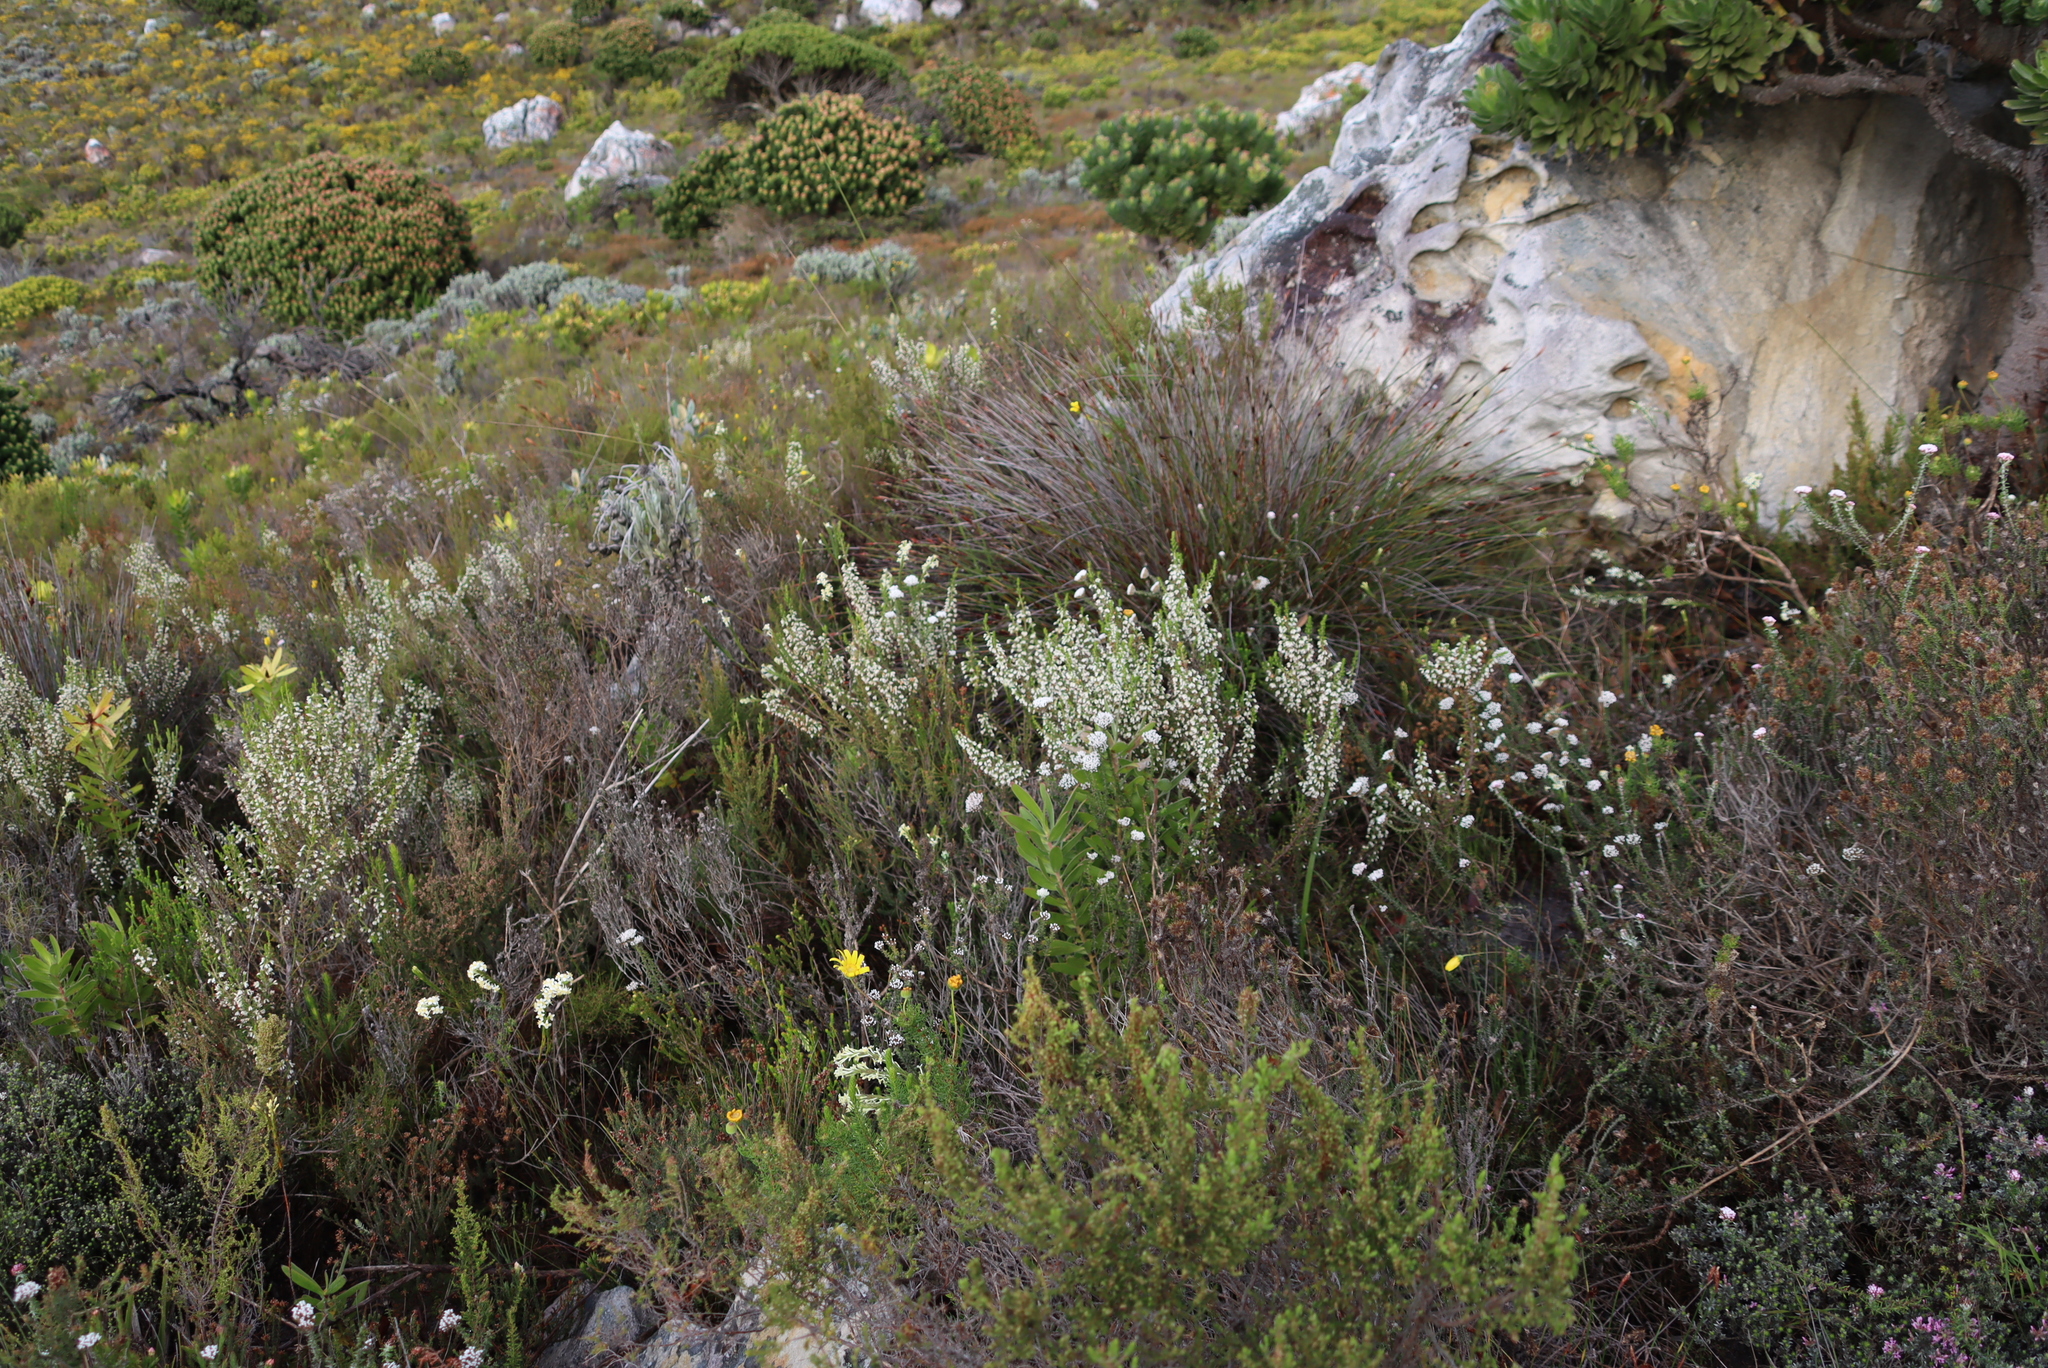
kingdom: Plantae
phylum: Tracheophyta
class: Magnoliopsida
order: Ericales
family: Ericaceae
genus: Erica
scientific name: Erica imbricata
